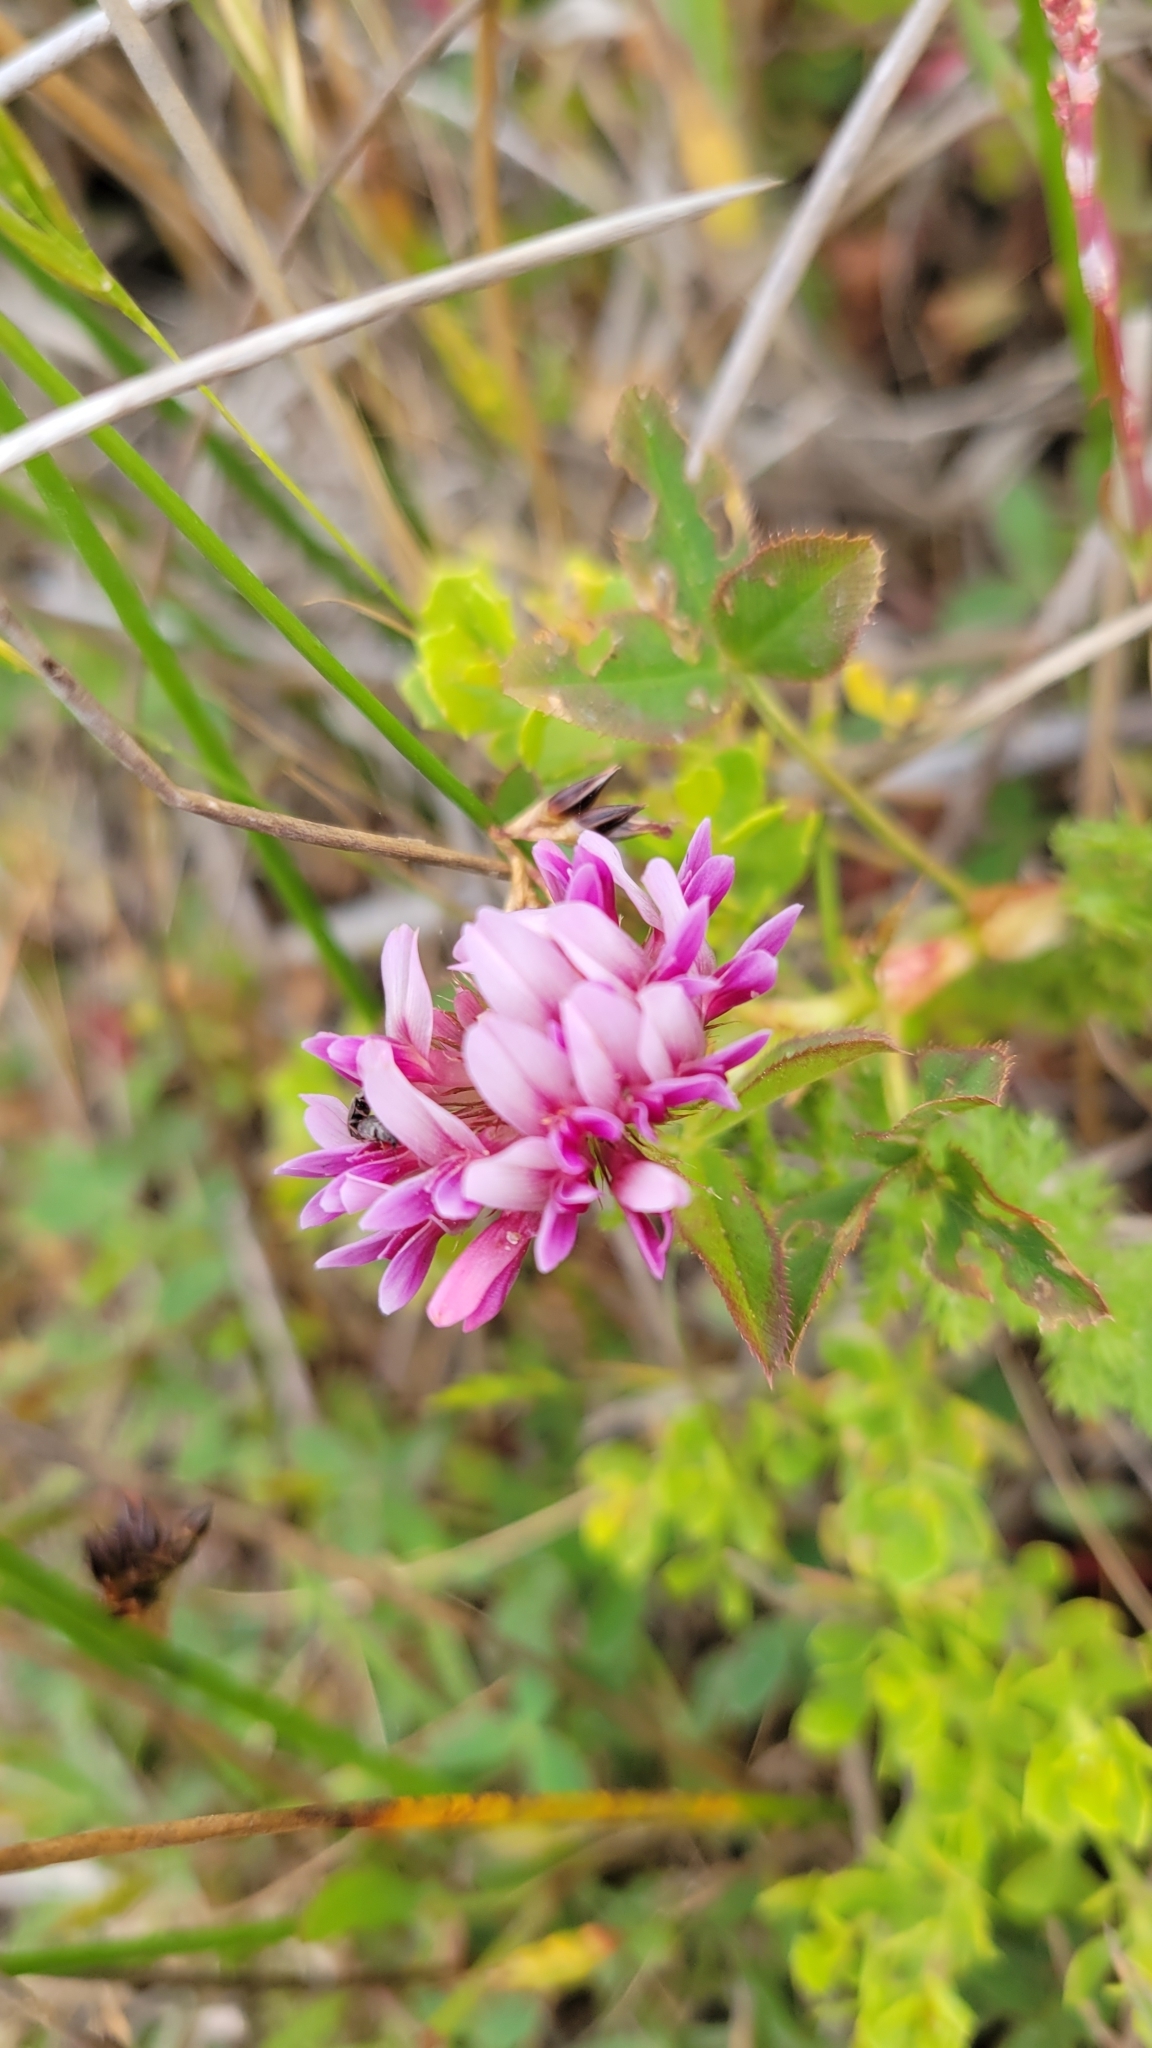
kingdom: Plantae
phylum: Tracheophyta
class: Magnoliopsida
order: Fabales
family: Fabaceae
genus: Trifolium
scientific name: Trifolium wormskioldii
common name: Springbank clover
